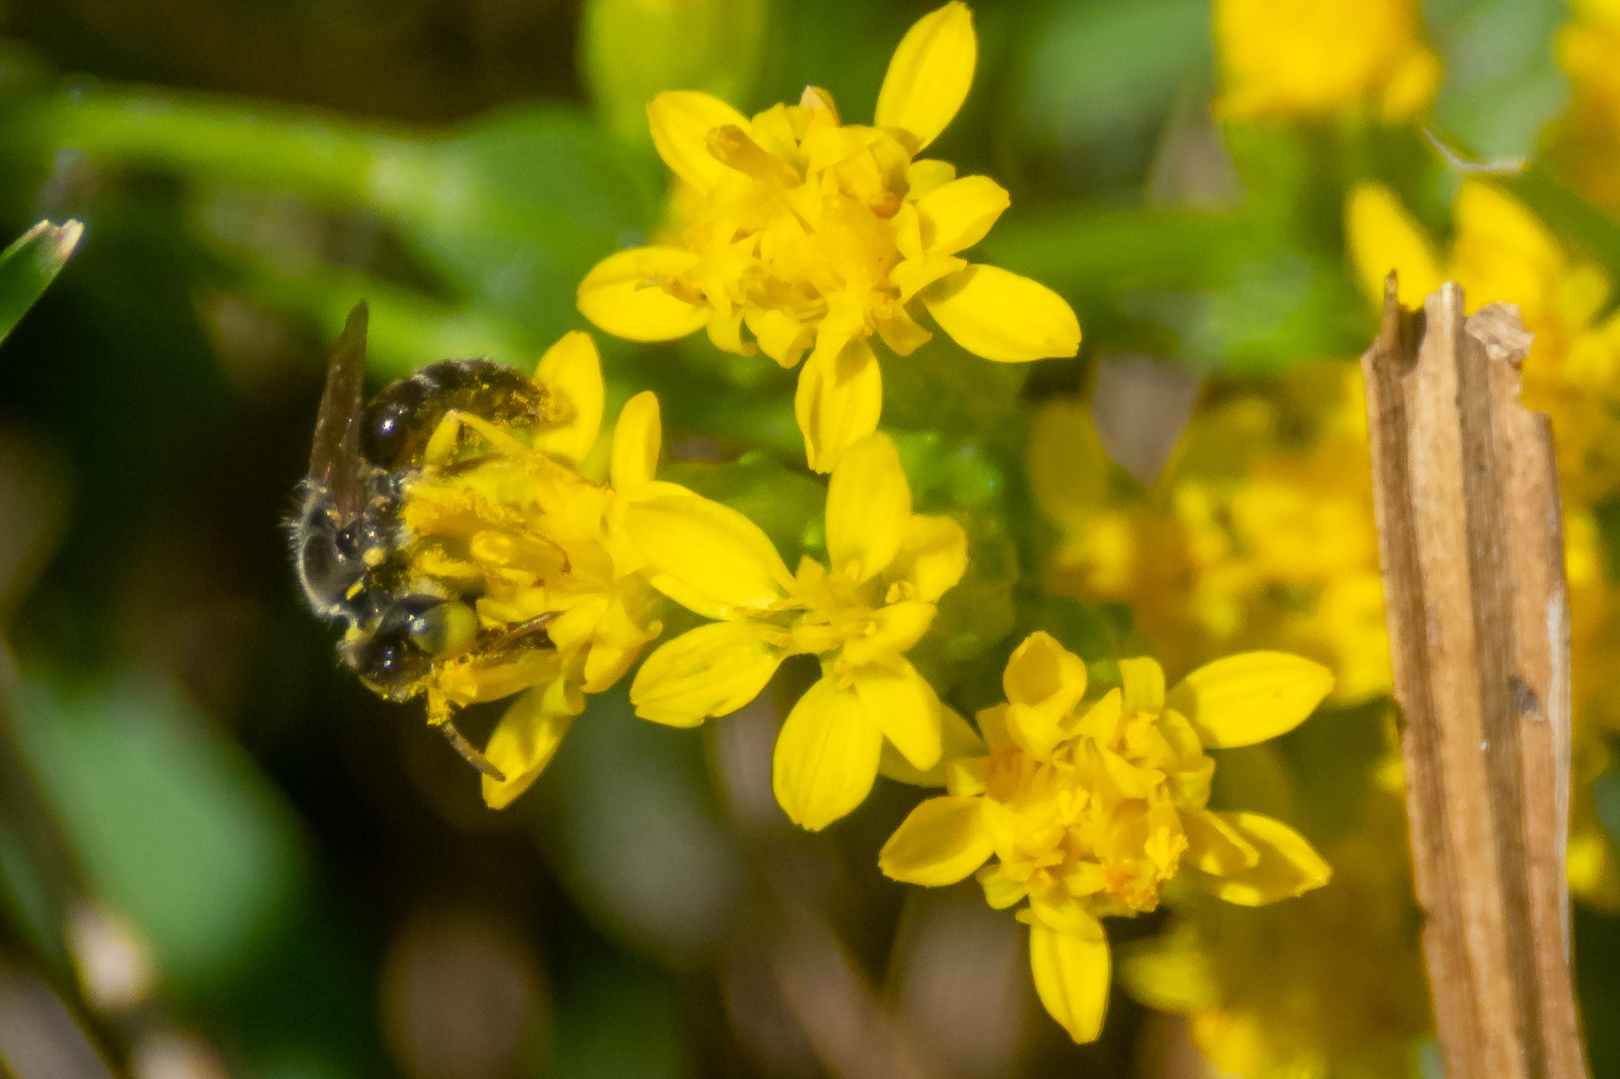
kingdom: Animalia
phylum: Arthropoda
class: Insecta
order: Hymenoptera
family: Andrenidae
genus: Calliopsis
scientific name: Calliopsis andreniformis
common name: Eastern calliopsis bee
